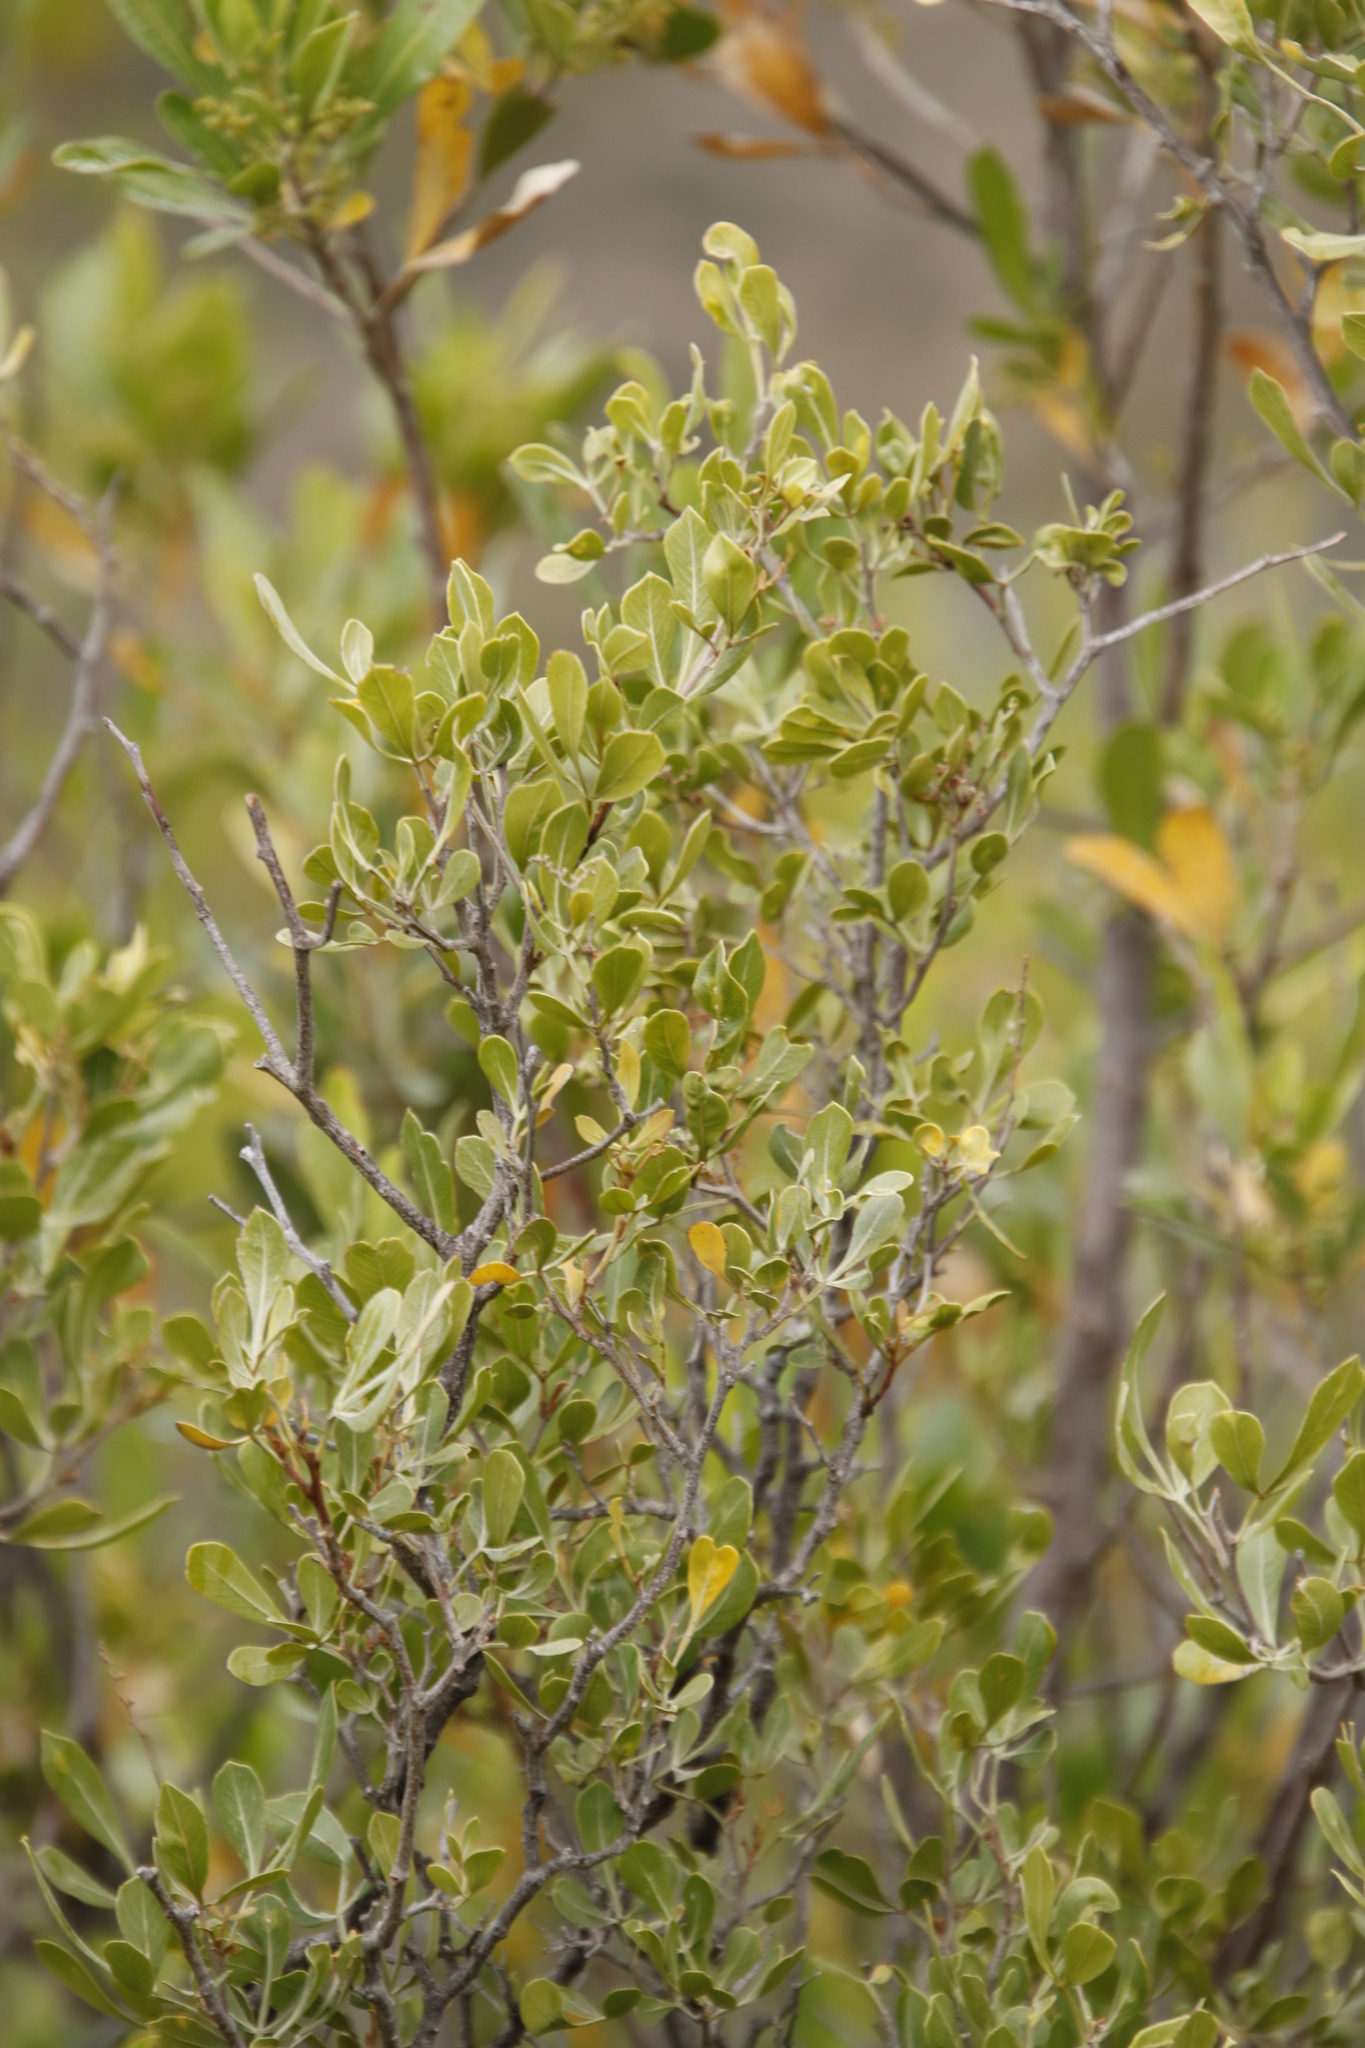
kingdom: Plantae
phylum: Tracheophyta
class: Magnoliopsida
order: Sapindales
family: Anacardiaceae
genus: Searsia
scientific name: Searsia pallens
